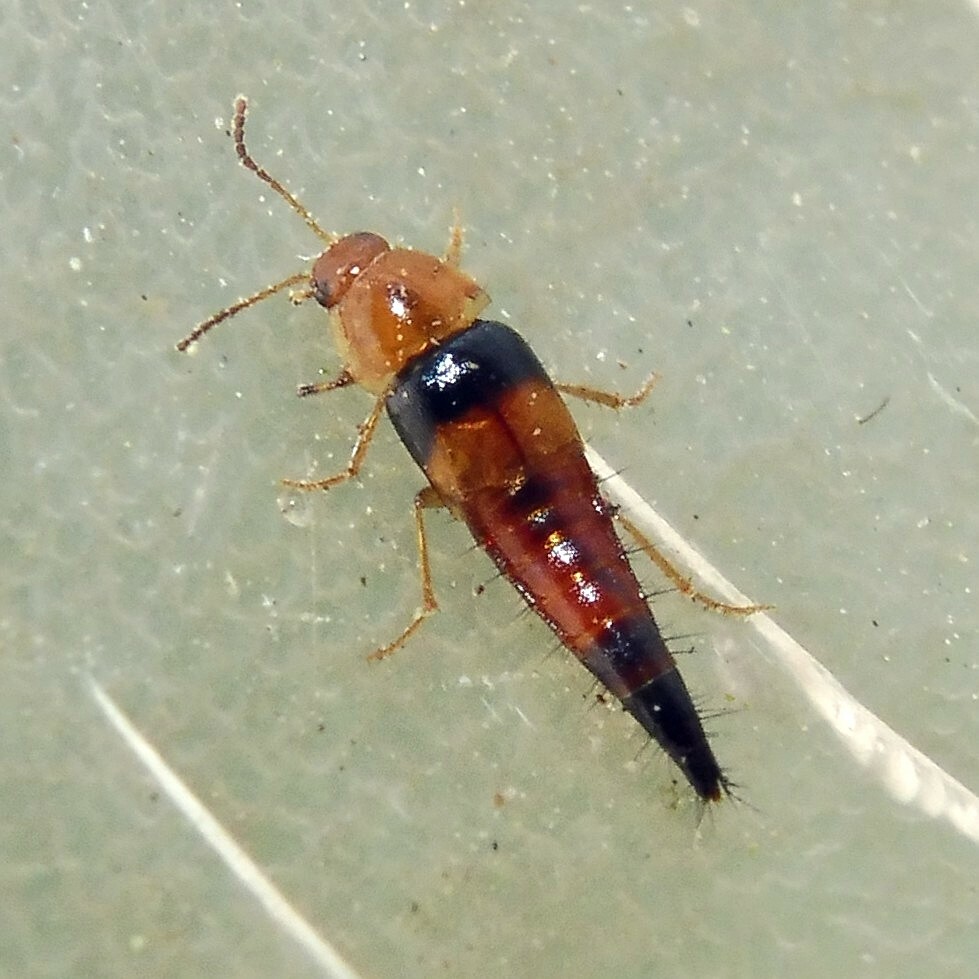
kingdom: Animalia
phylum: Arthropoda
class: Insecta
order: Coleoptera
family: Staphylinidae
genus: Tachyporus
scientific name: Tachyporus obtusus
